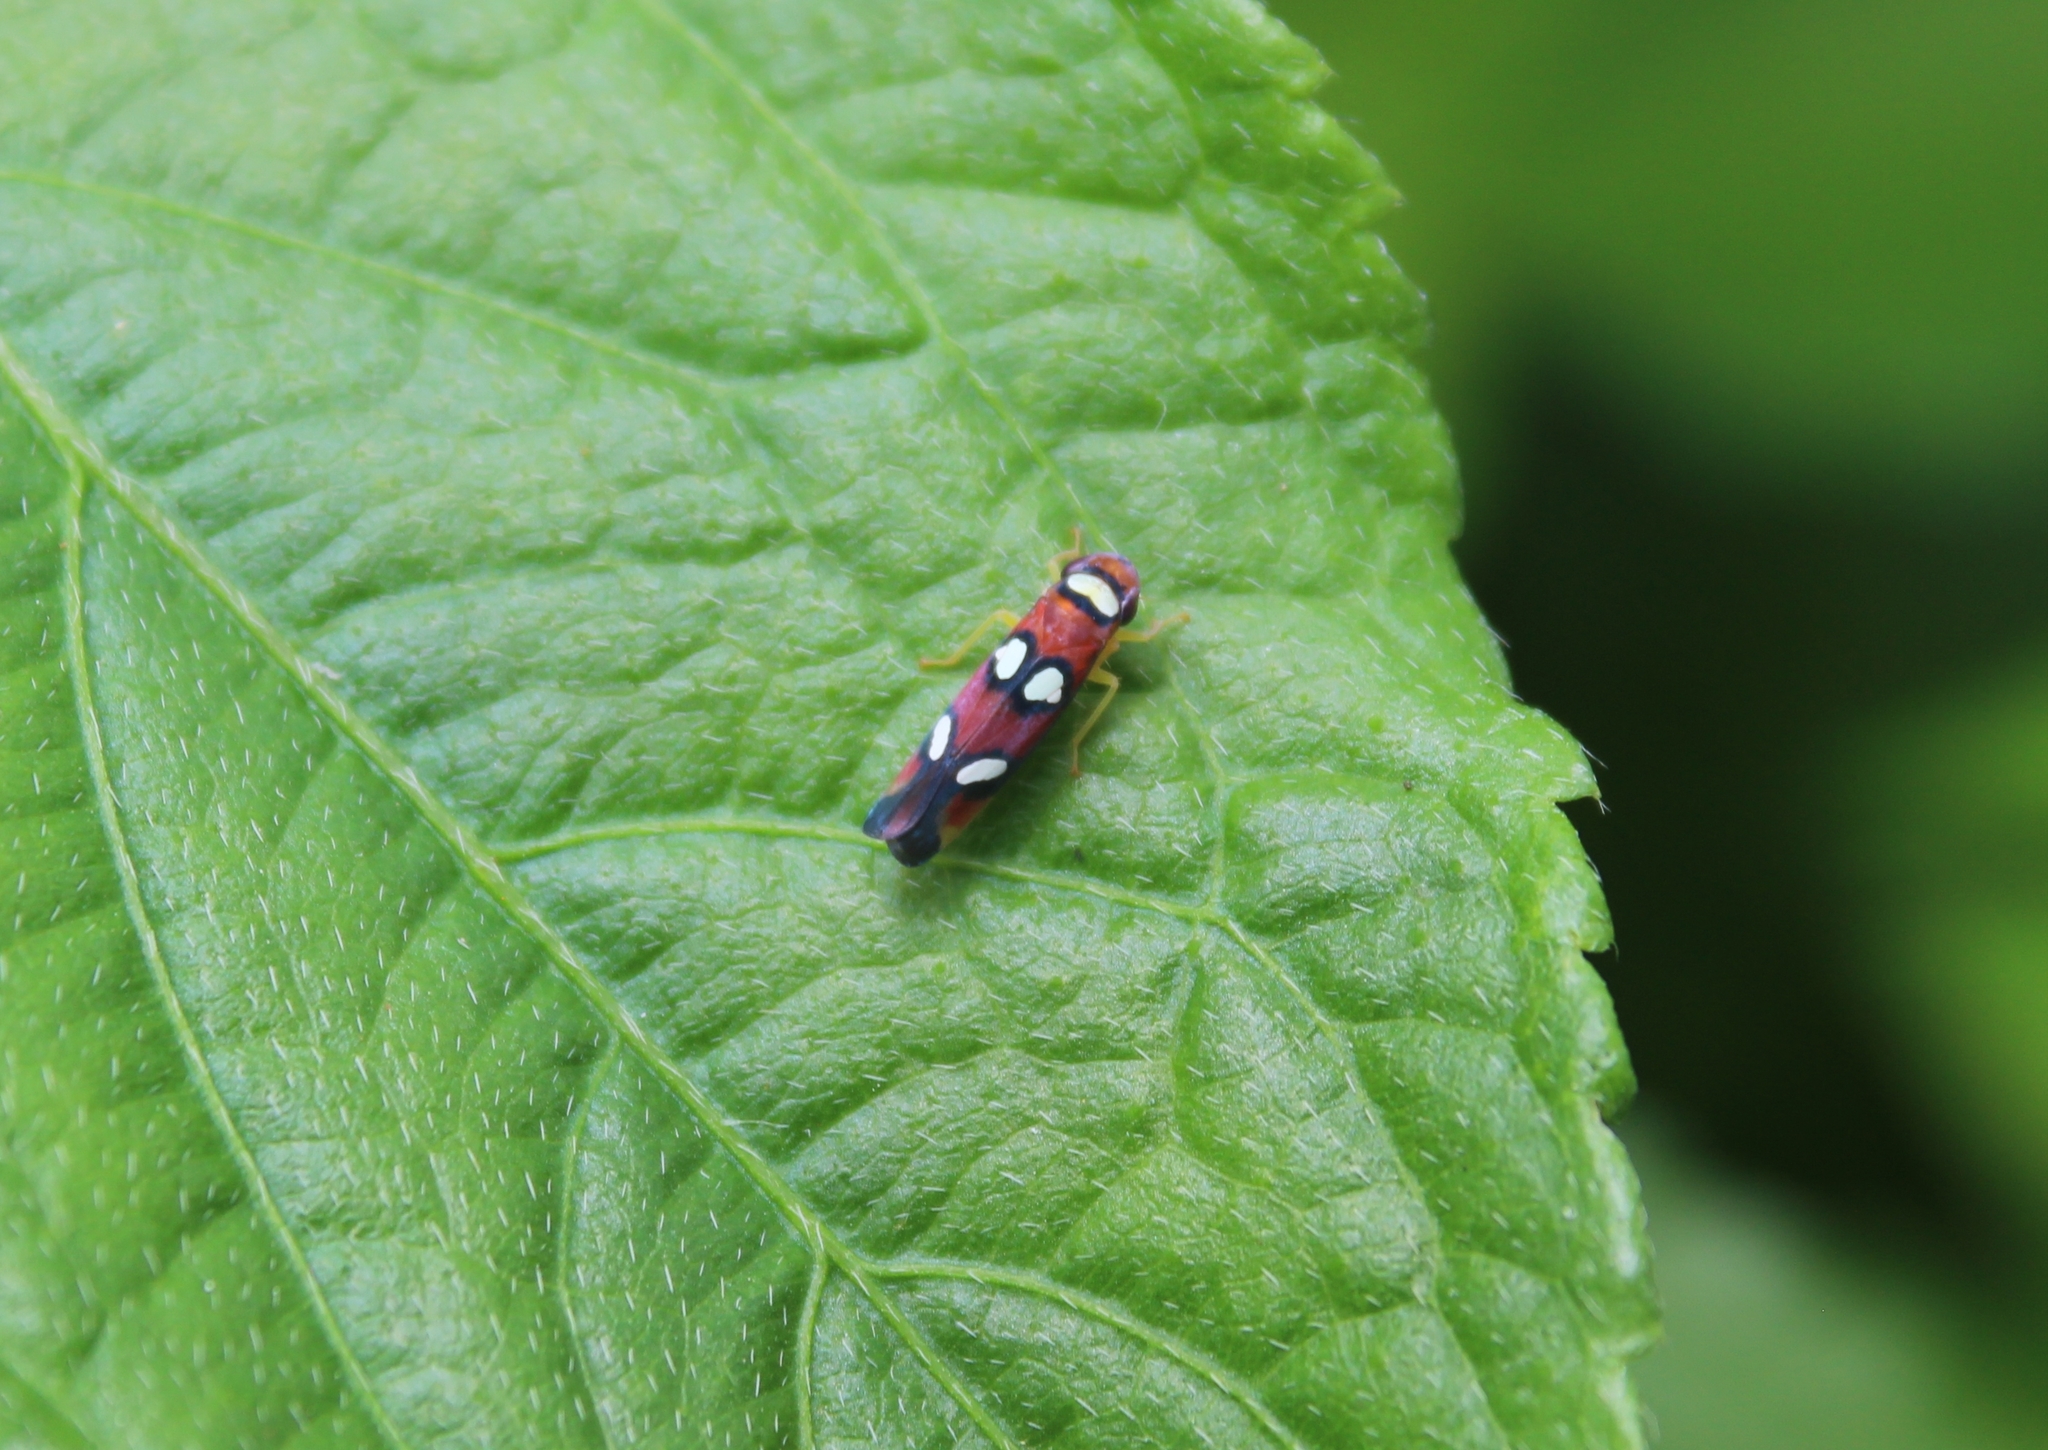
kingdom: Animalia
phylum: Arthropoda
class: Insecta
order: Hemiptera
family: Cicadellidae
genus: Erythrogonia
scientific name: Erythrogonia areolata
